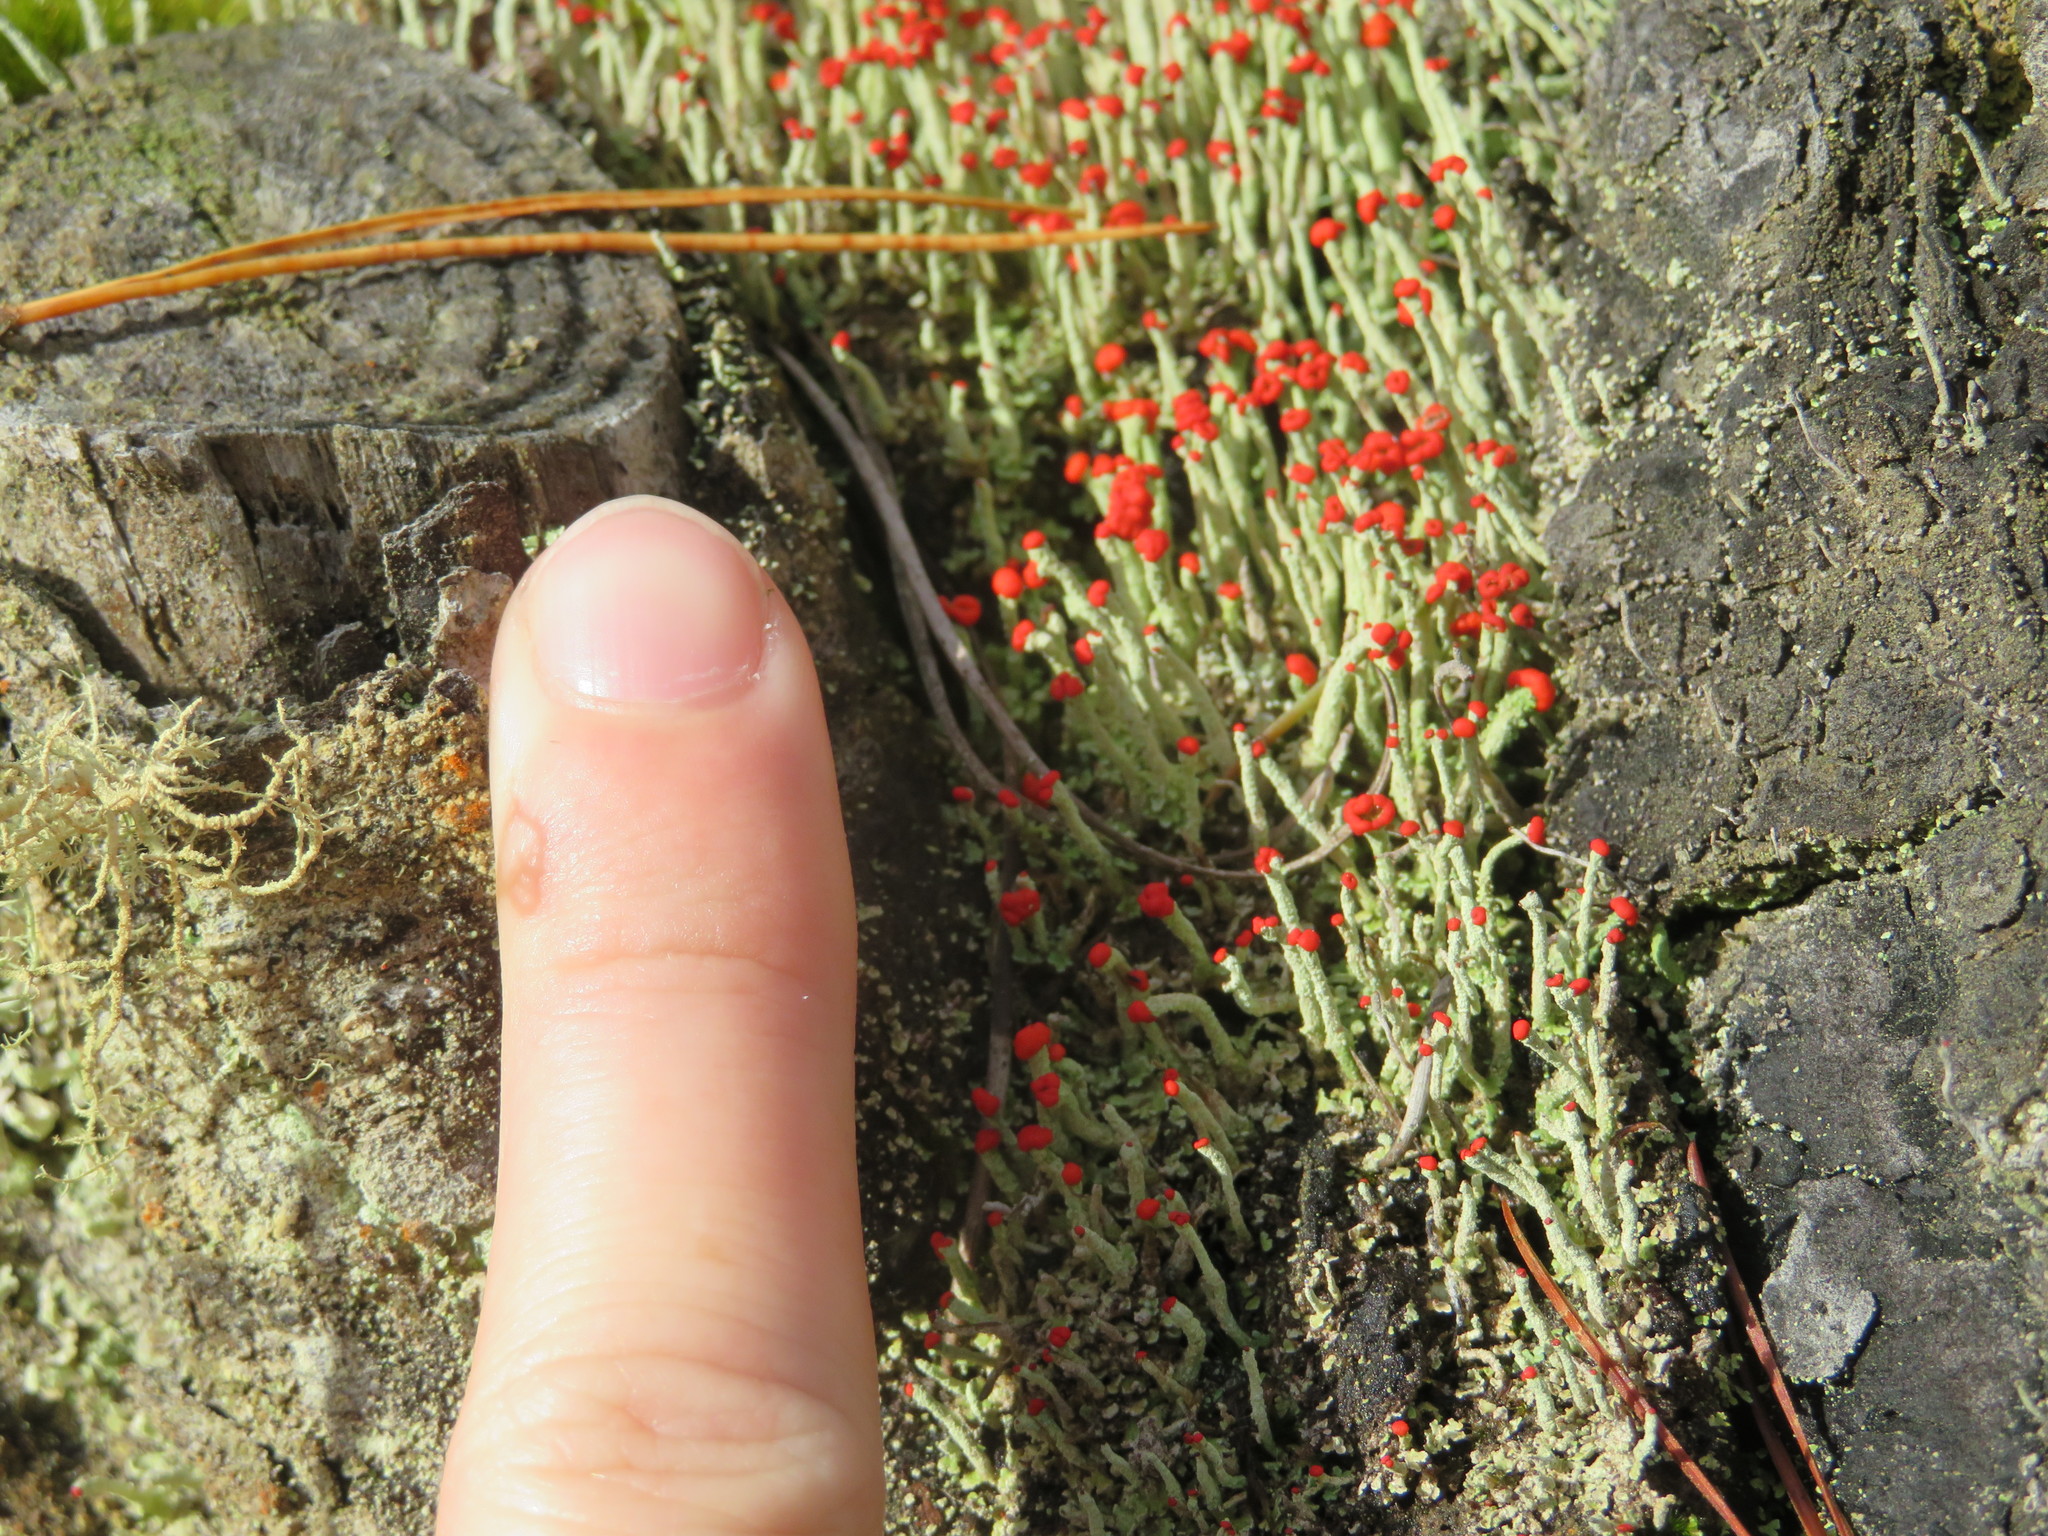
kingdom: Fungi
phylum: Ascomycota
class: Lecanoromycetes
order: Lecanorales
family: Cladoniaceae
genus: Cladonia
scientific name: Cladonia cristatella
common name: British soldier lichen
